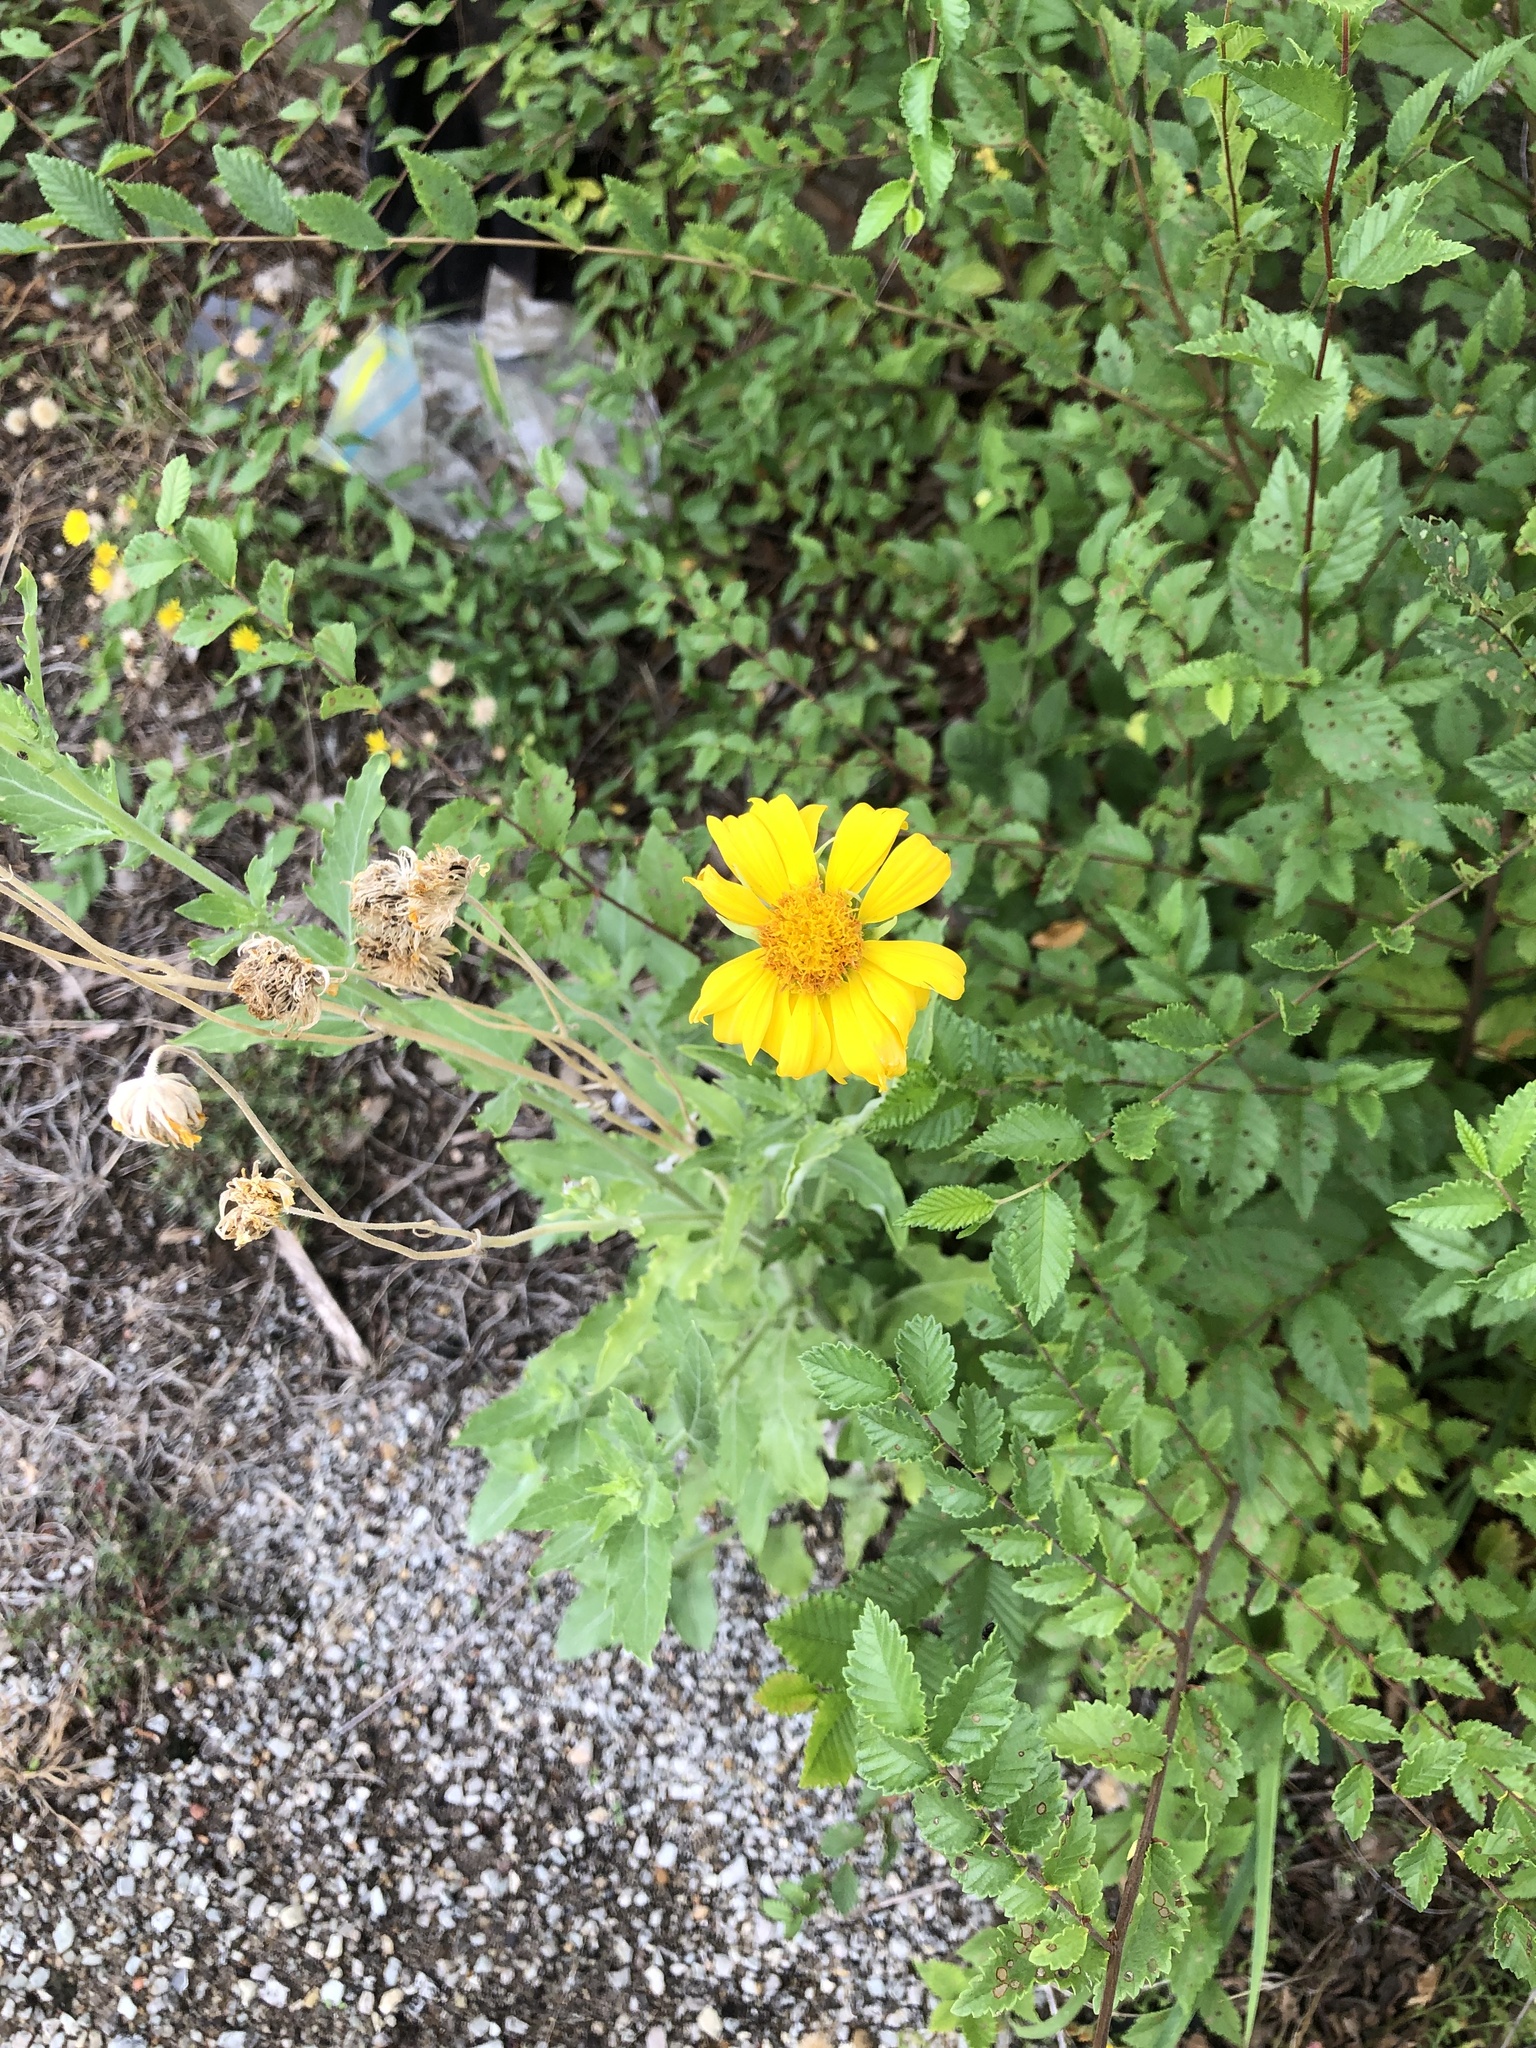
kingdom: Plantae
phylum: Tracheophyta
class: Magnoliopsida
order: Asterales
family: Asteraceae
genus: Verbesina
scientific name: Verbesina encelioides
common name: Golden crownbeard
